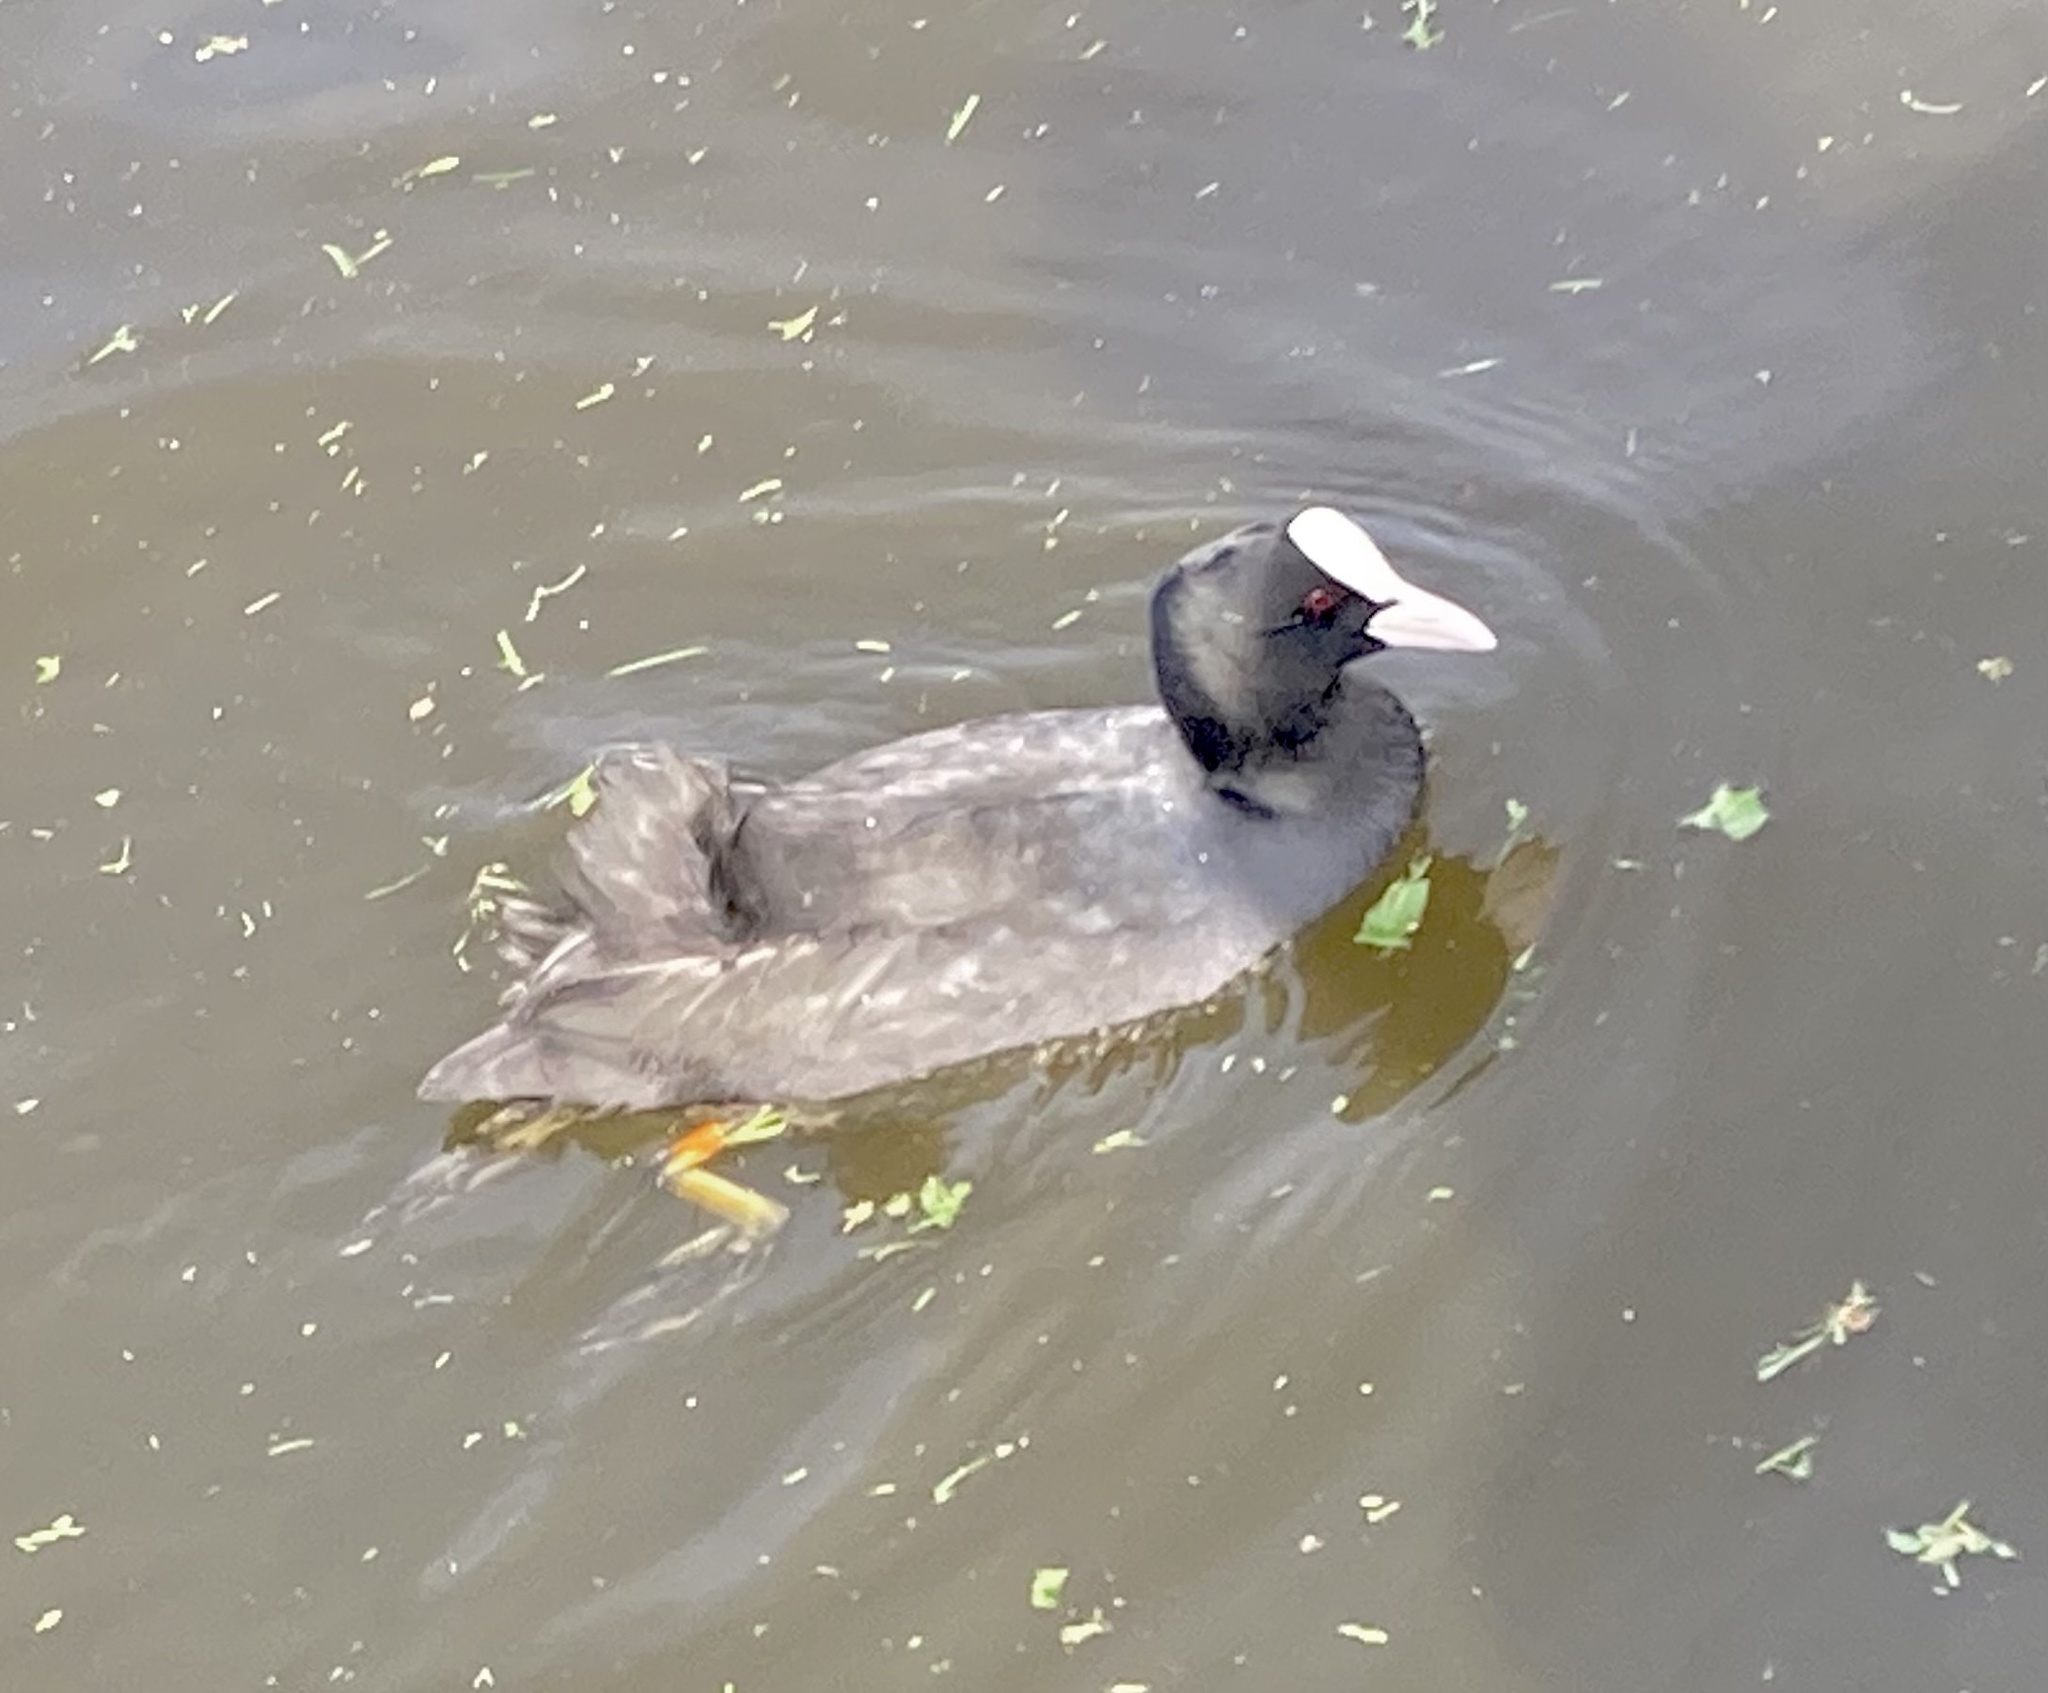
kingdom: Animalia
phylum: Chordata
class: Aves
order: Gruiformes
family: Rallidae
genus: Fulica
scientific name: Fulica atra
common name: Eurasian coot
